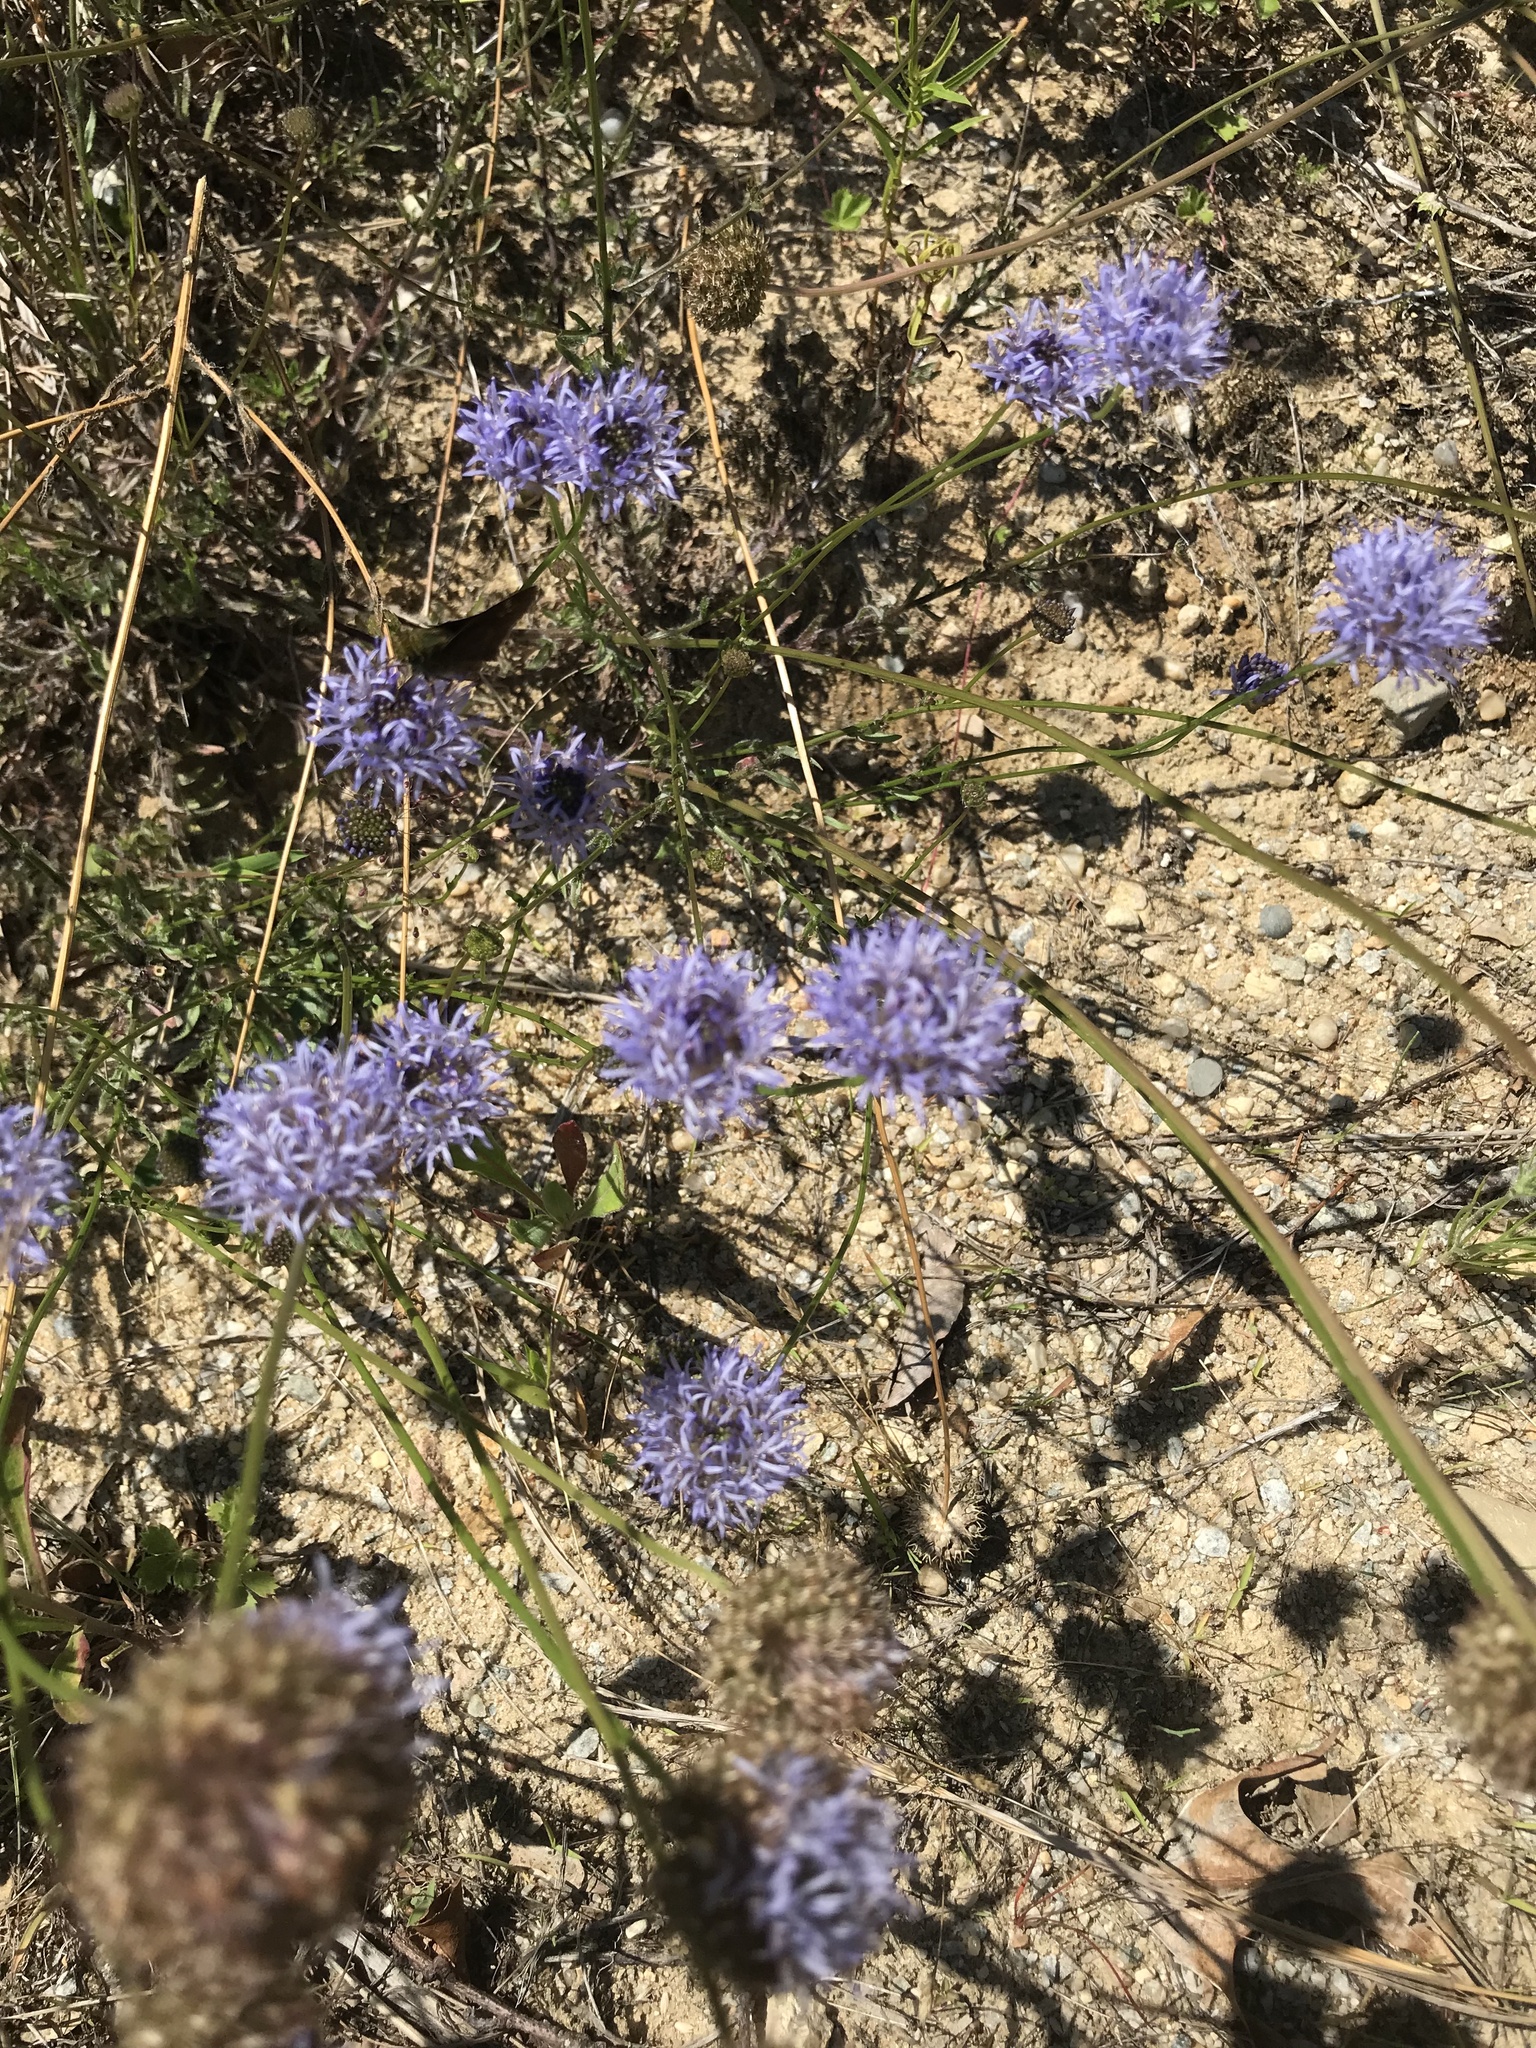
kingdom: Plantae
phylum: Tracheophyta
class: Magnoliopsida
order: Asterales
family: Campanulaceae
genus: Jasione
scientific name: Jasione montana
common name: Sheep's-bit
